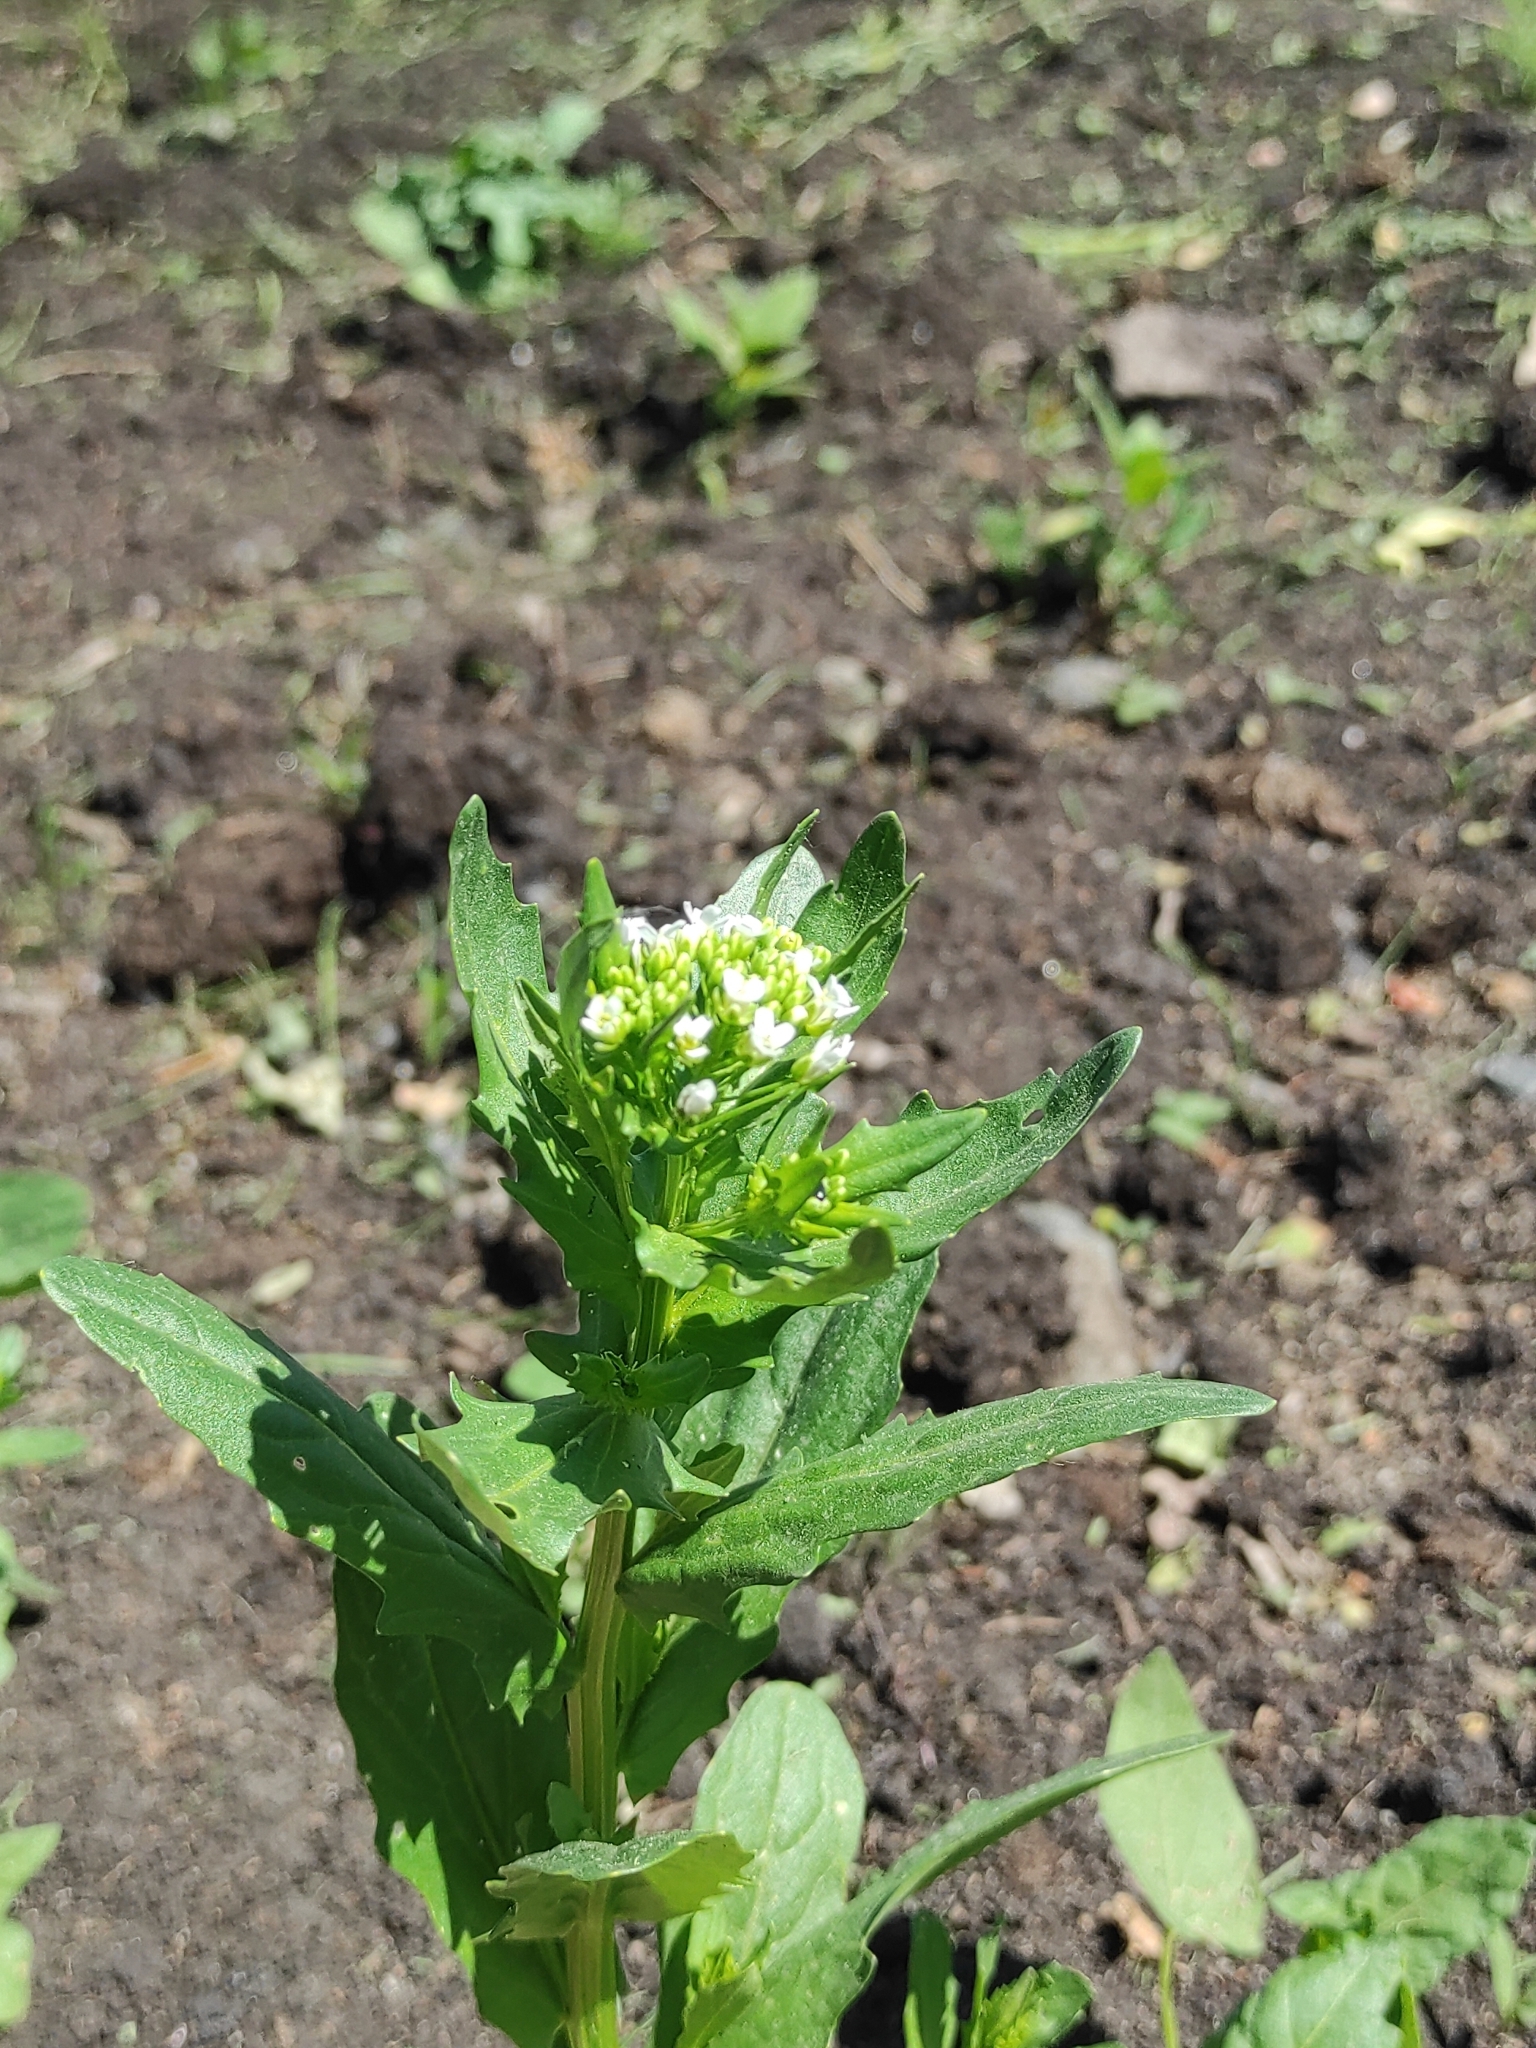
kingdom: Plantae
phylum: Tracheophyta
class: Magnoliopsida
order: Brassicales
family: Brassicaceae
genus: Thlaspi
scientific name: Thlaspi arvense
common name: Field pennycress
